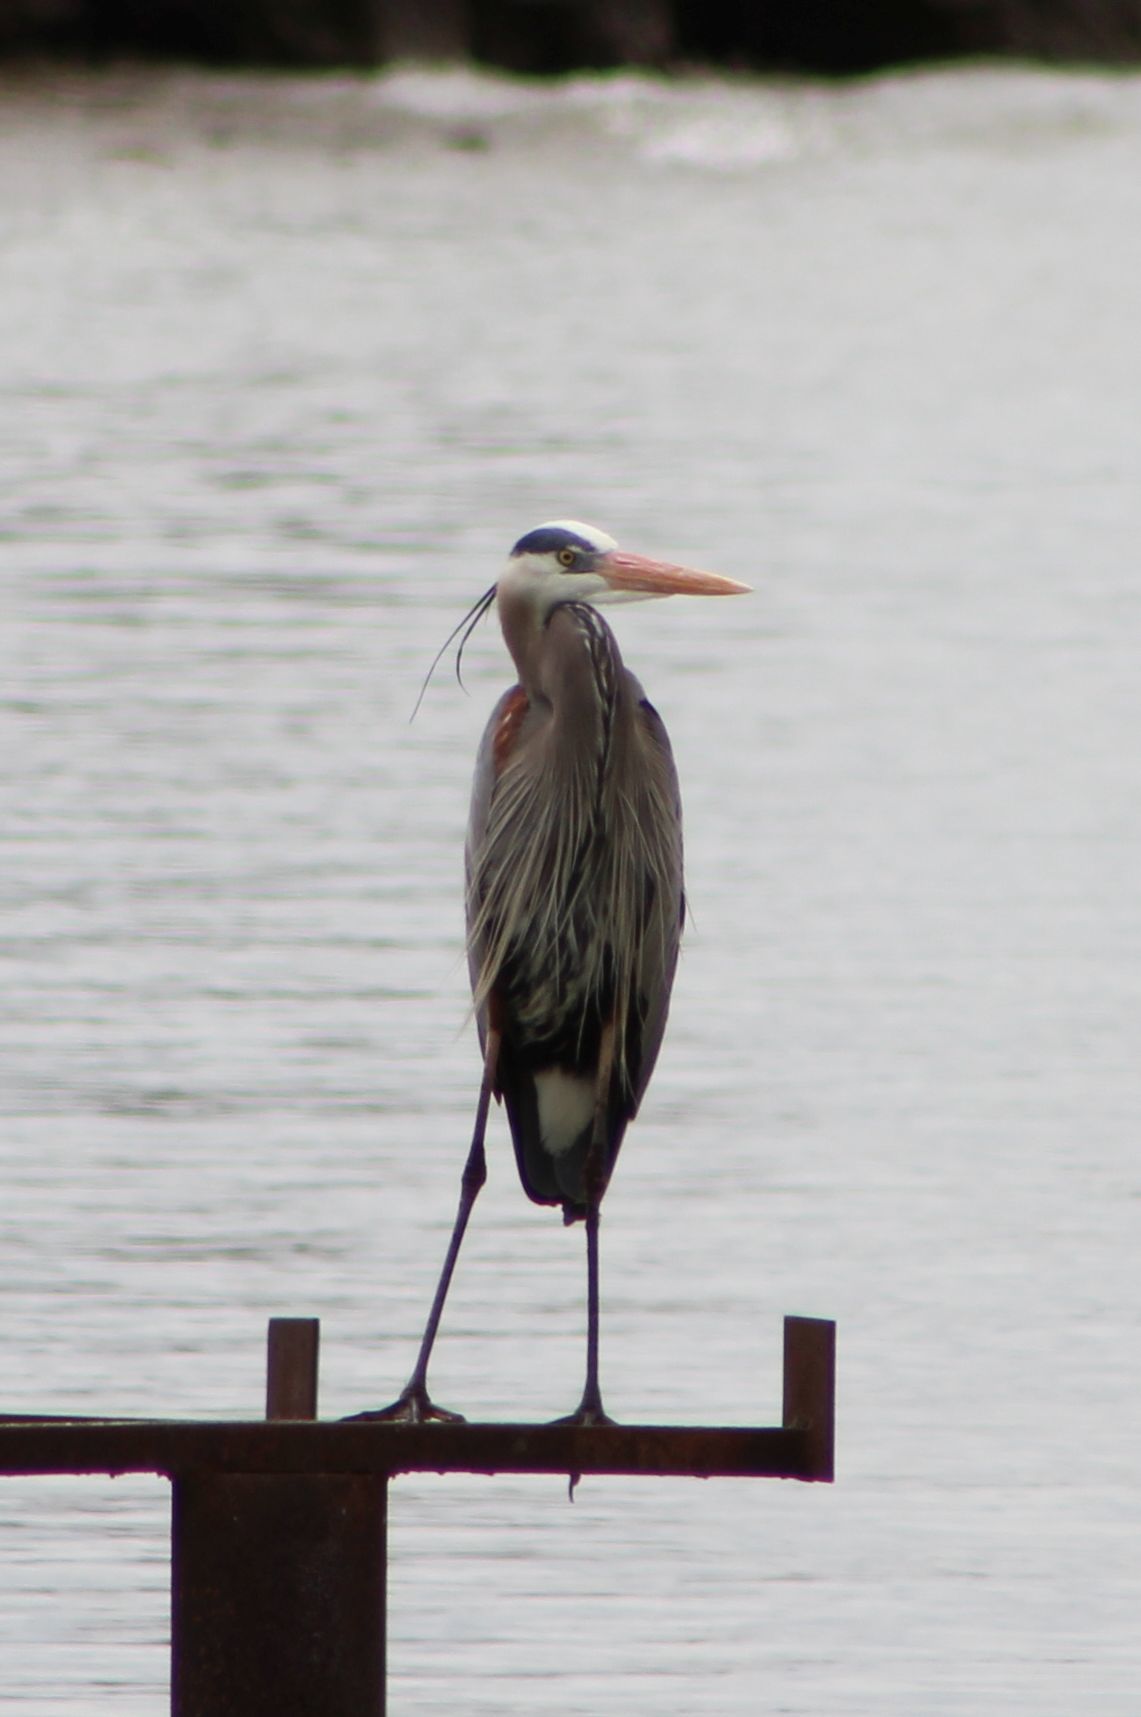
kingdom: Animalia
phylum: Chordata
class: Aves
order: Pelecaniformes
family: Ardeidae
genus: Ardea
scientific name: Ardea herodias
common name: Great blue heron
